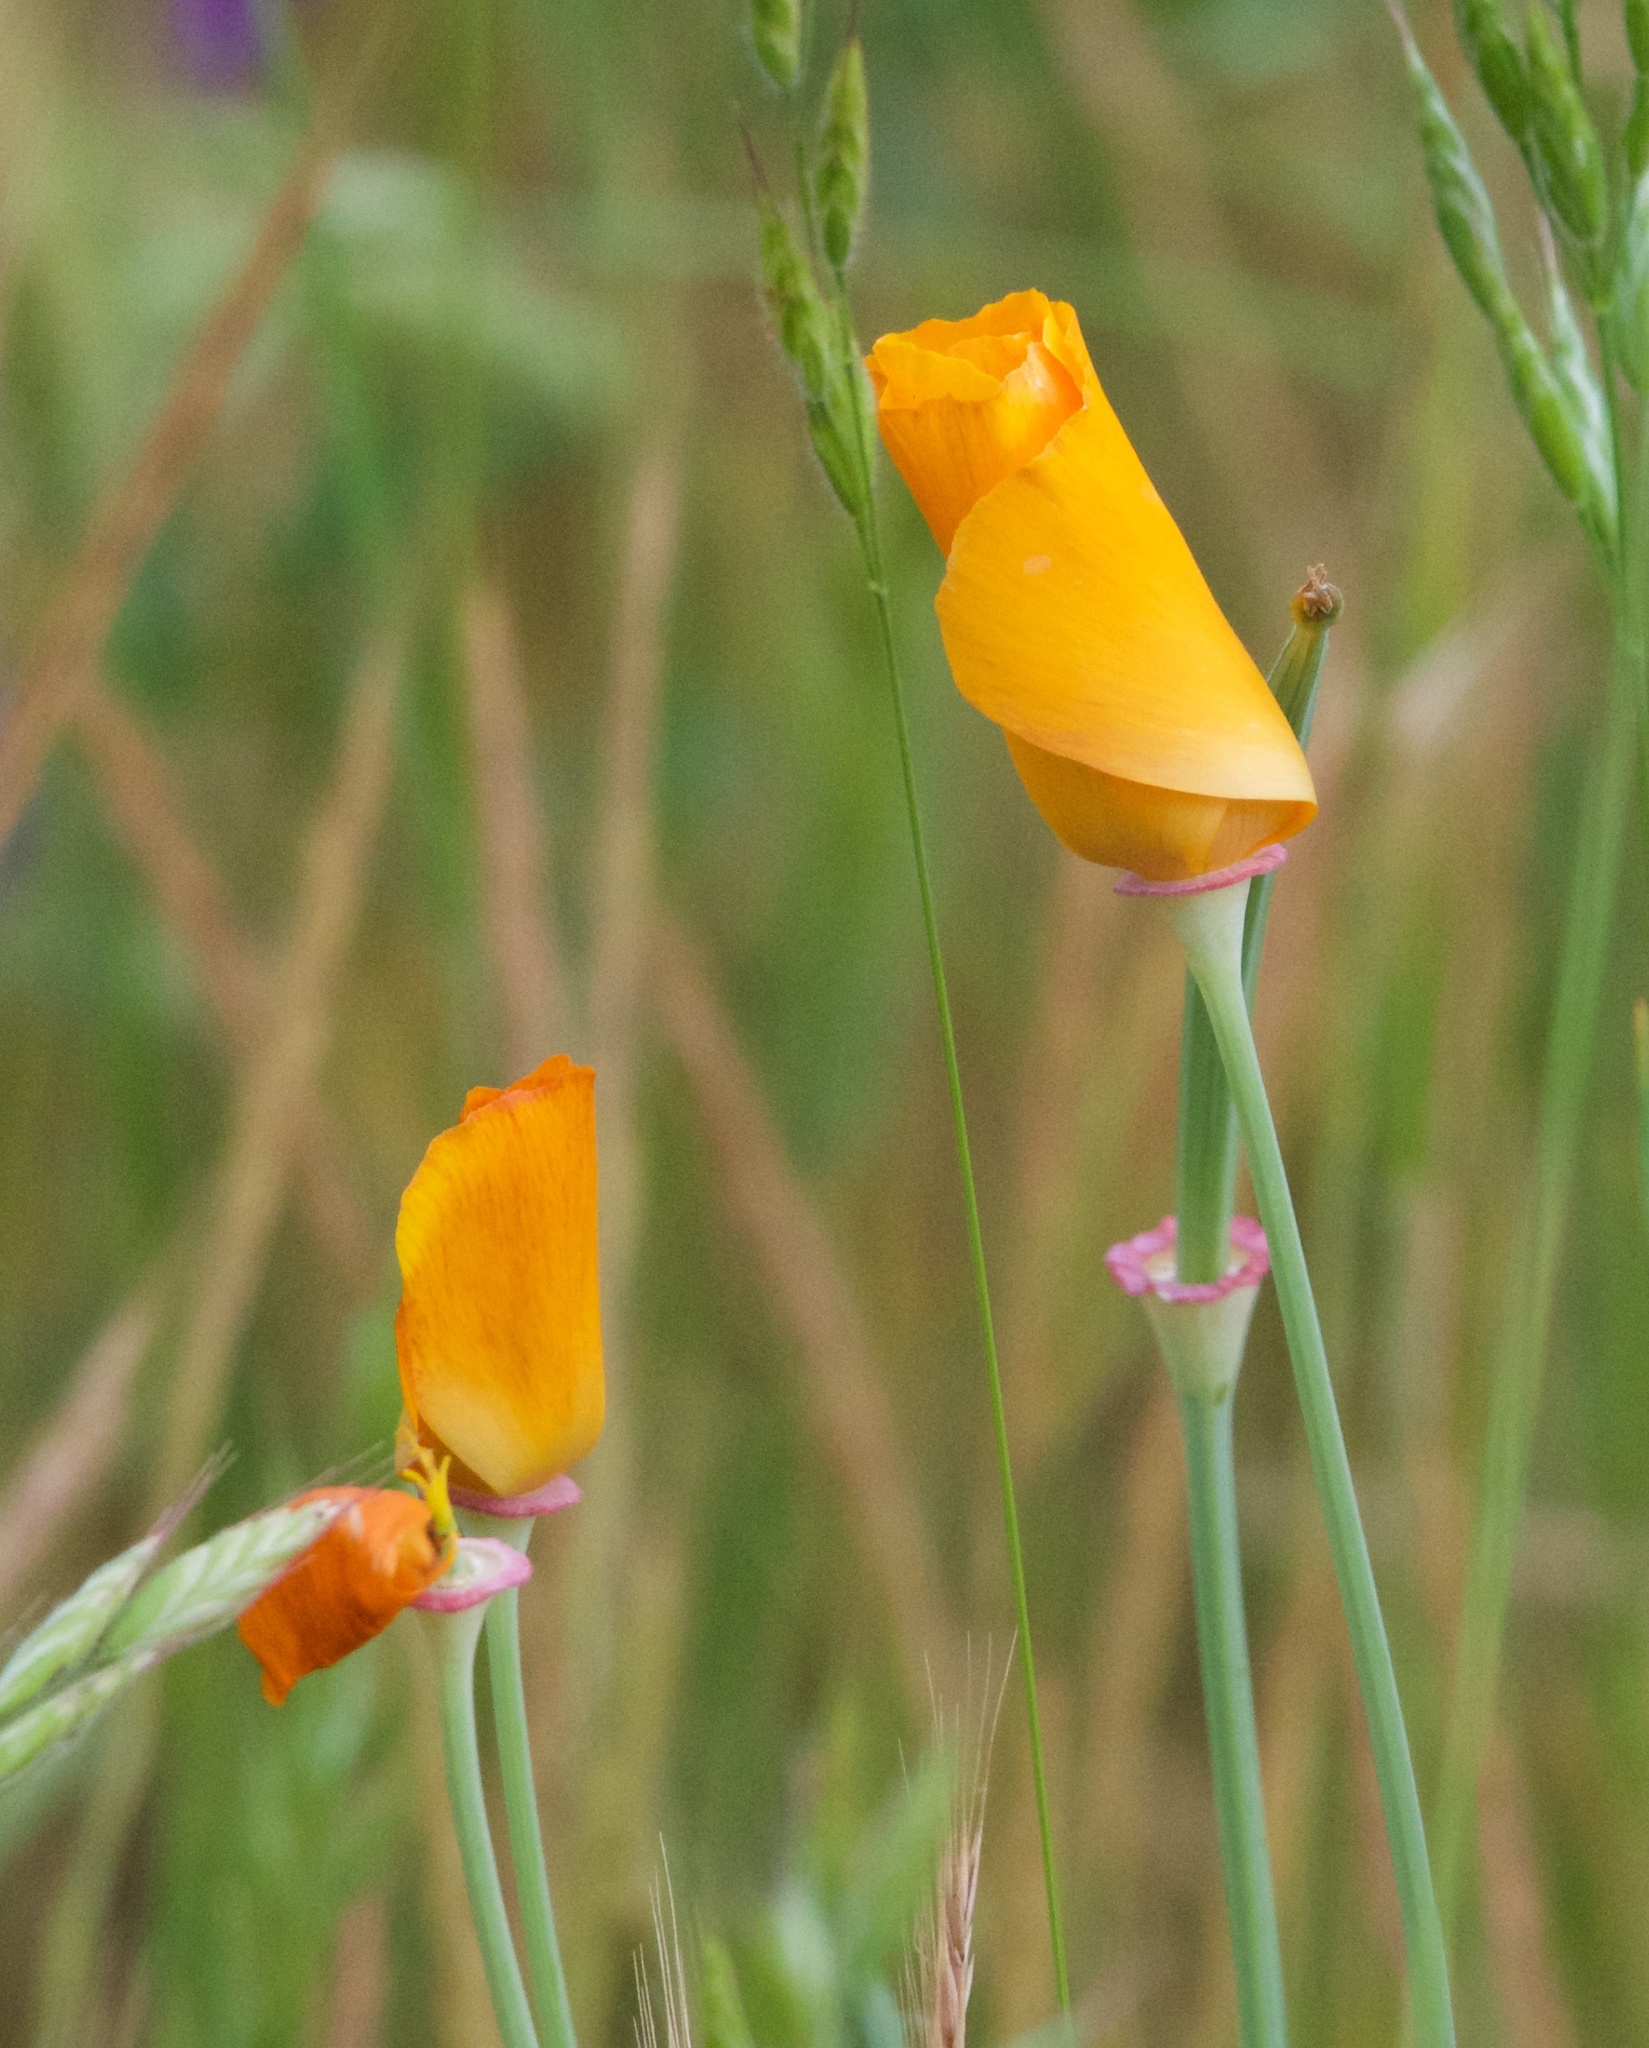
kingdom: Plantae
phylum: Tracheophyta
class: Magnoliopsida
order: Ranunculales
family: Papaveraceae
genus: Eschscholzia
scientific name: Eschscholzia californica
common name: California poppy
